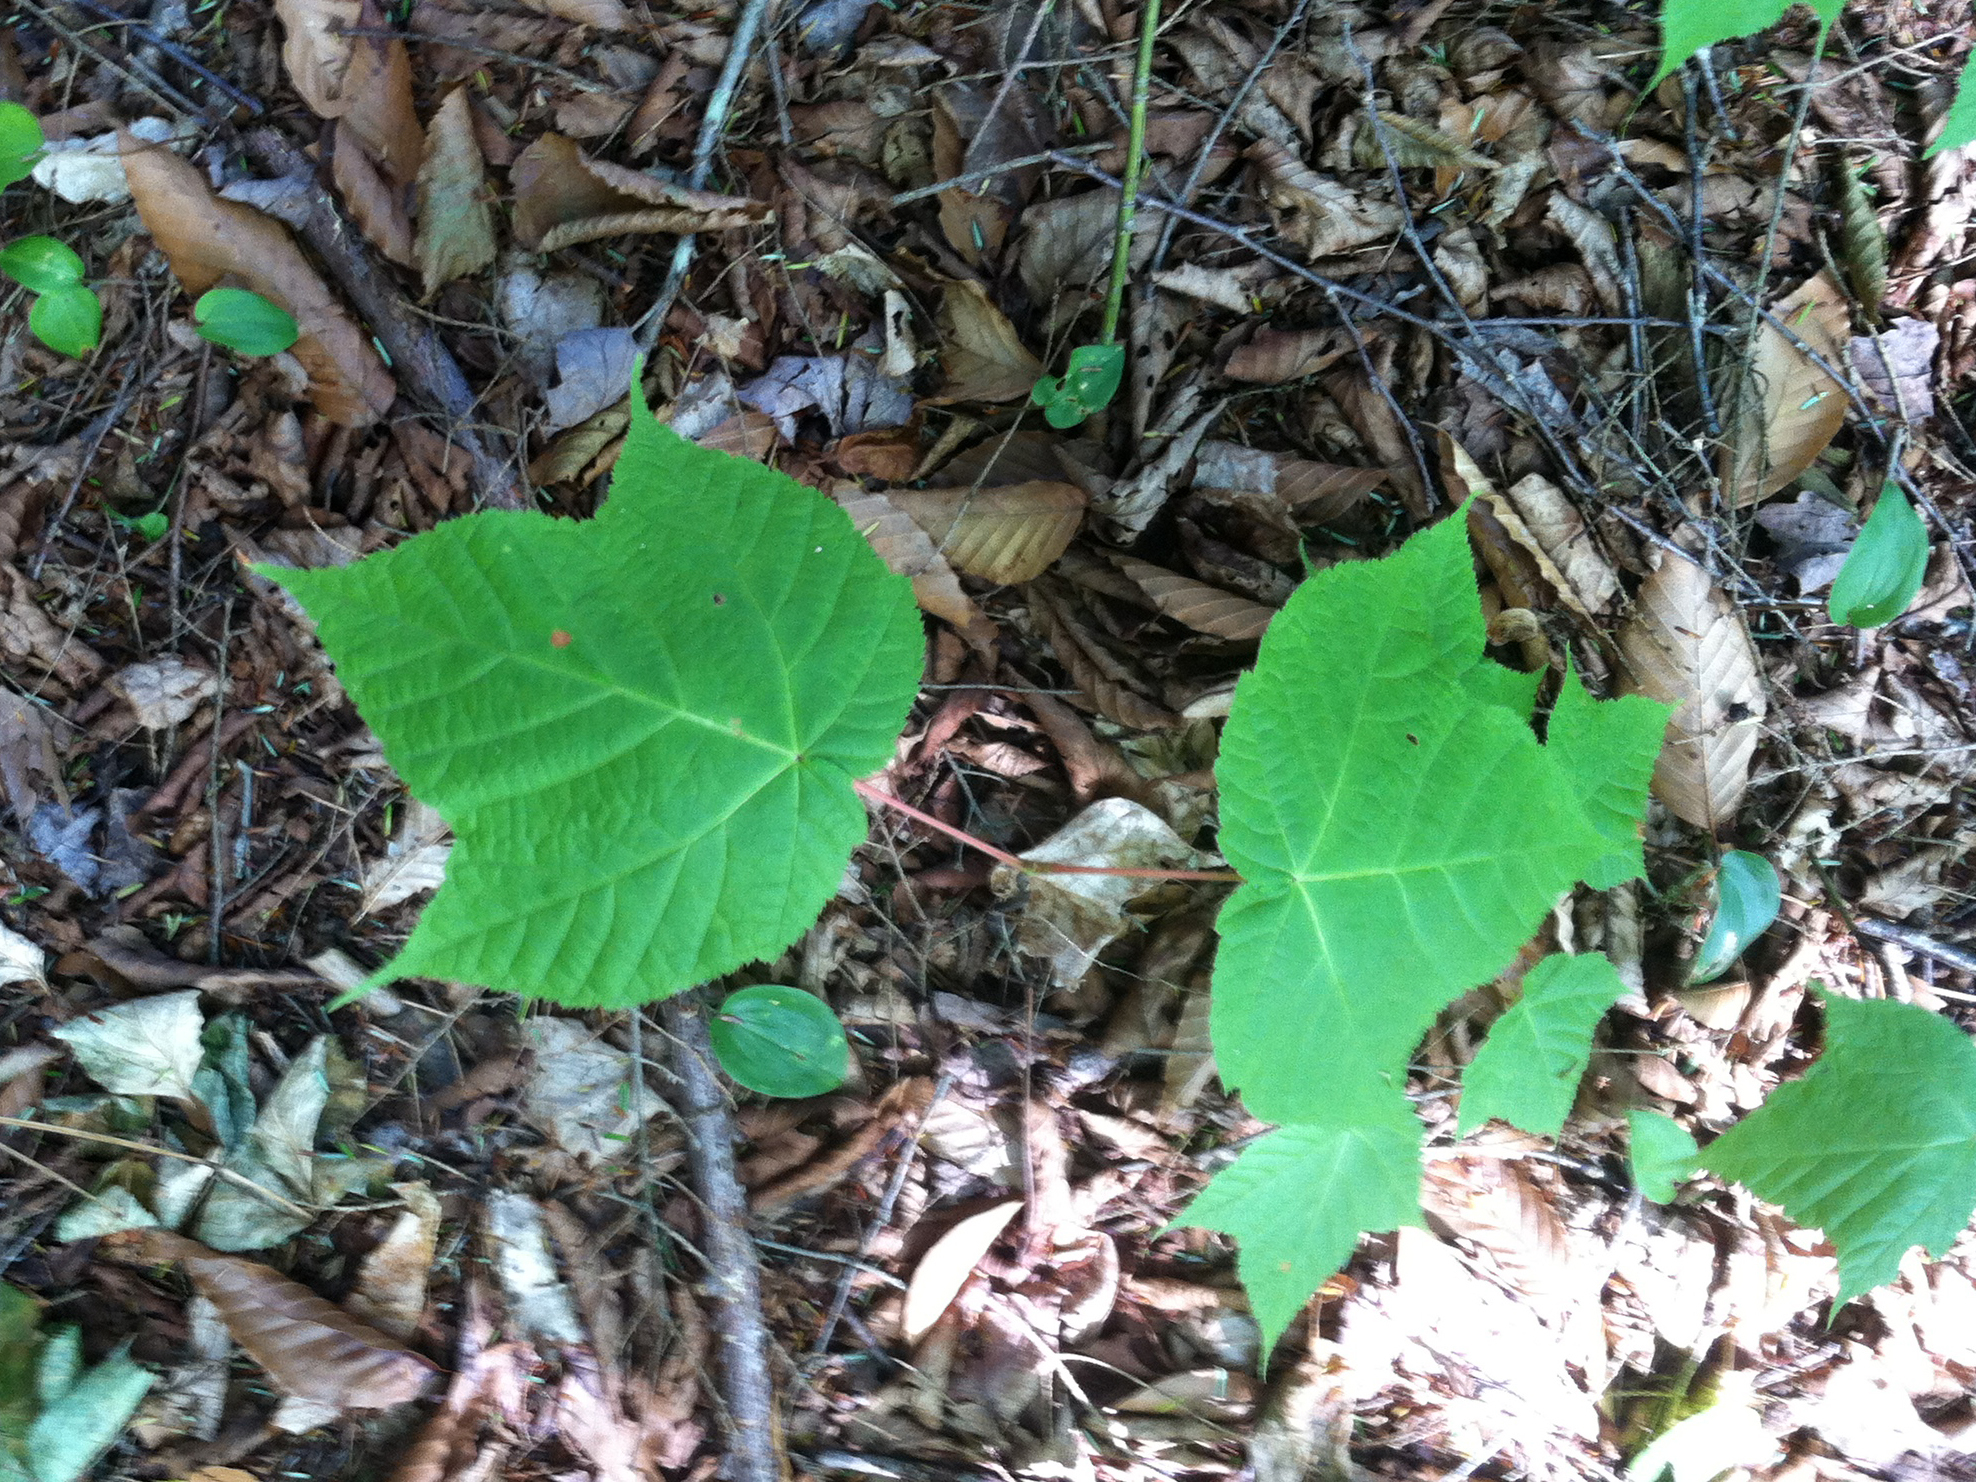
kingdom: Plantae
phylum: Tracheophyta
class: Magnoliopsida
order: Sapindales
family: Sapindaceae
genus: Acer
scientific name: Acer pensylvanicum
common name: Moosewood
